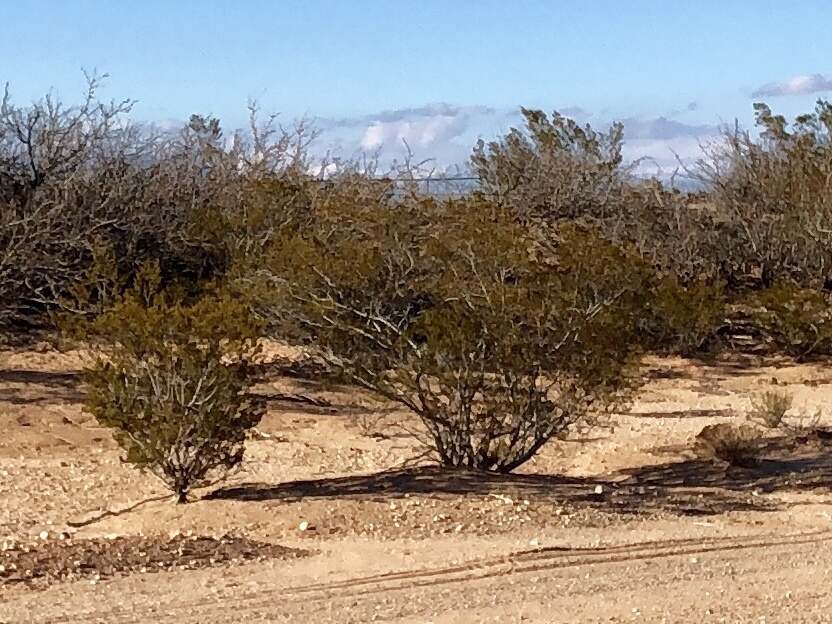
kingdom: Plantae
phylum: Tracheophyta
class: Magnoliopsida
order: Zygophyllales
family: Zygophyllaceae
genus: Larrea
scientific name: Larrea tridentata
